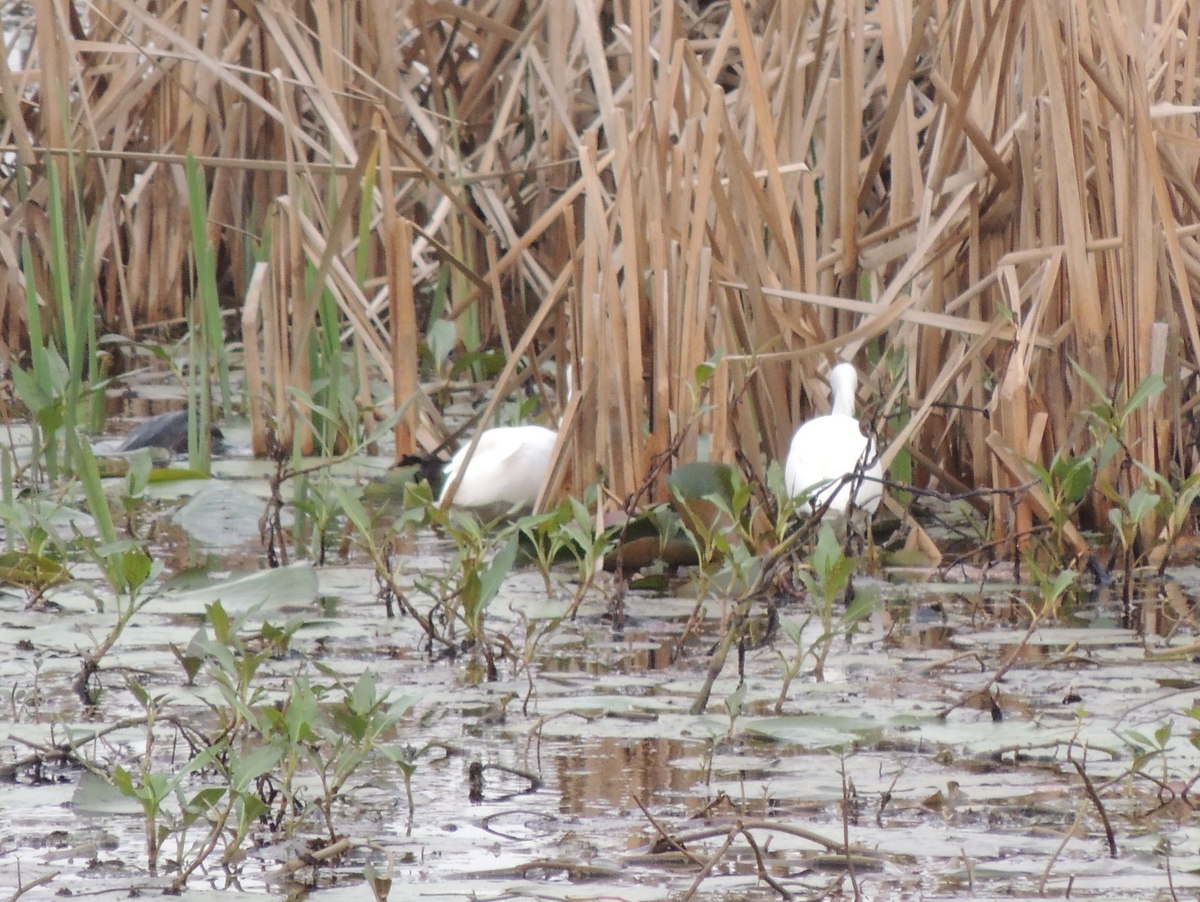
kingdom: Animalia
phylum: Chordata
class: Aves
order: Pelecaniformes
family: Ardeidae
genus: Egretta
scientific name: Egretta thula
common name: Snowy egret
